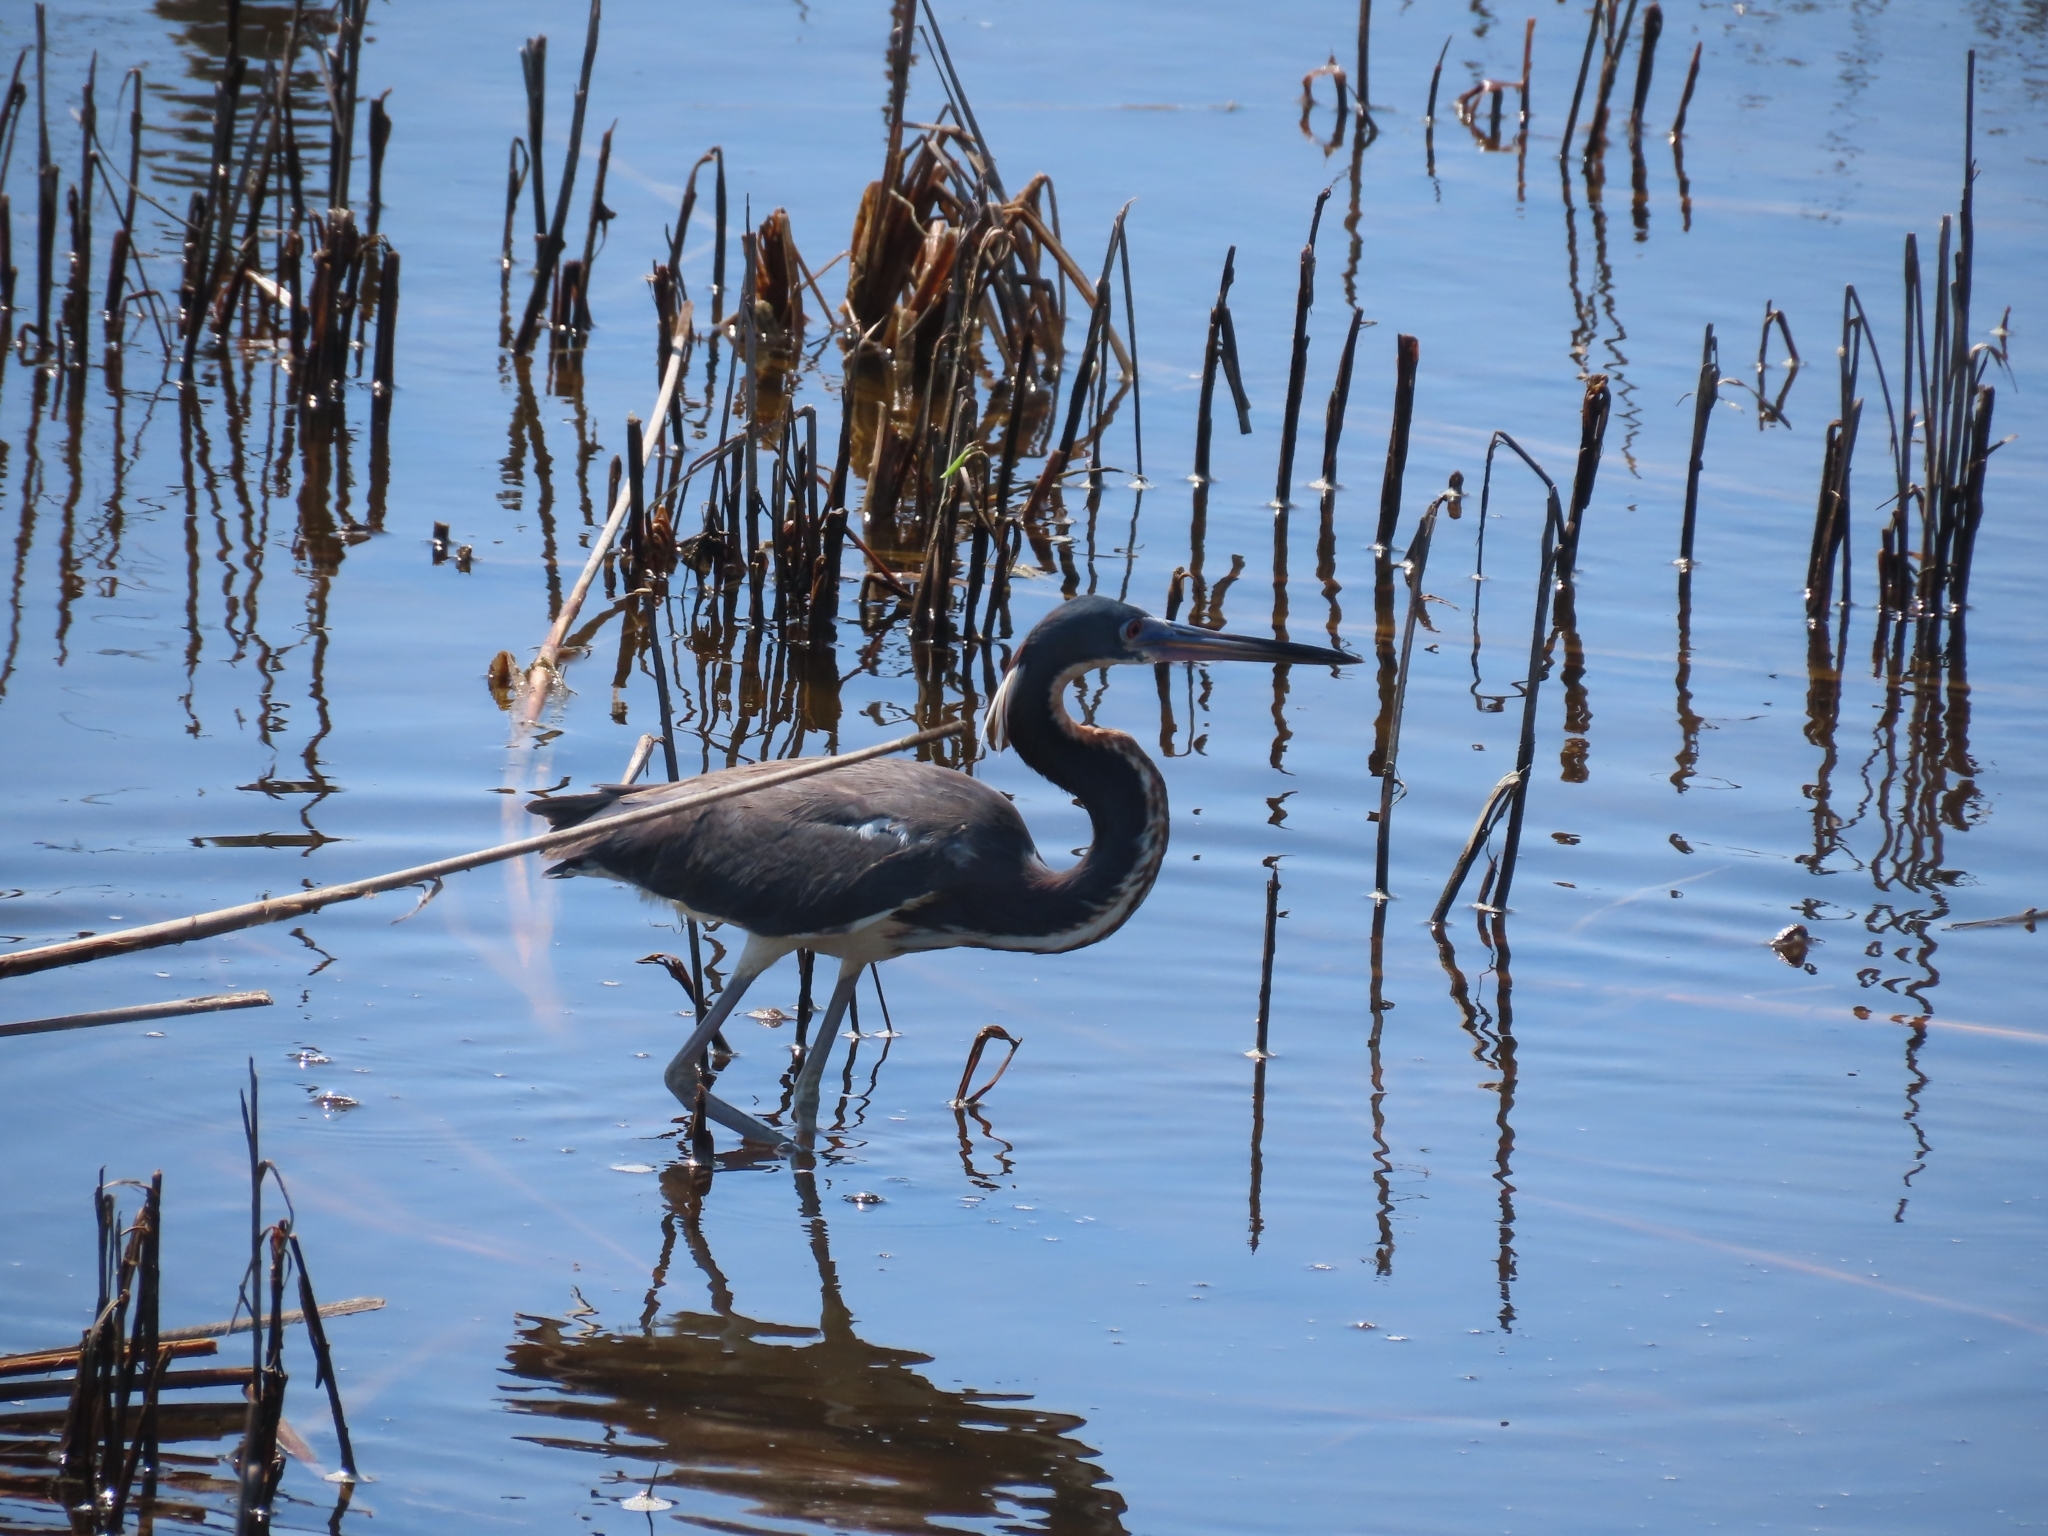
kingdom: Animalia
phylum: Chordata
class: Aves
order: Pelecaniformes
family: Ardeidae
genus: Egretta
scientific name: Egretta tricolor
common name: Tricolored heron
